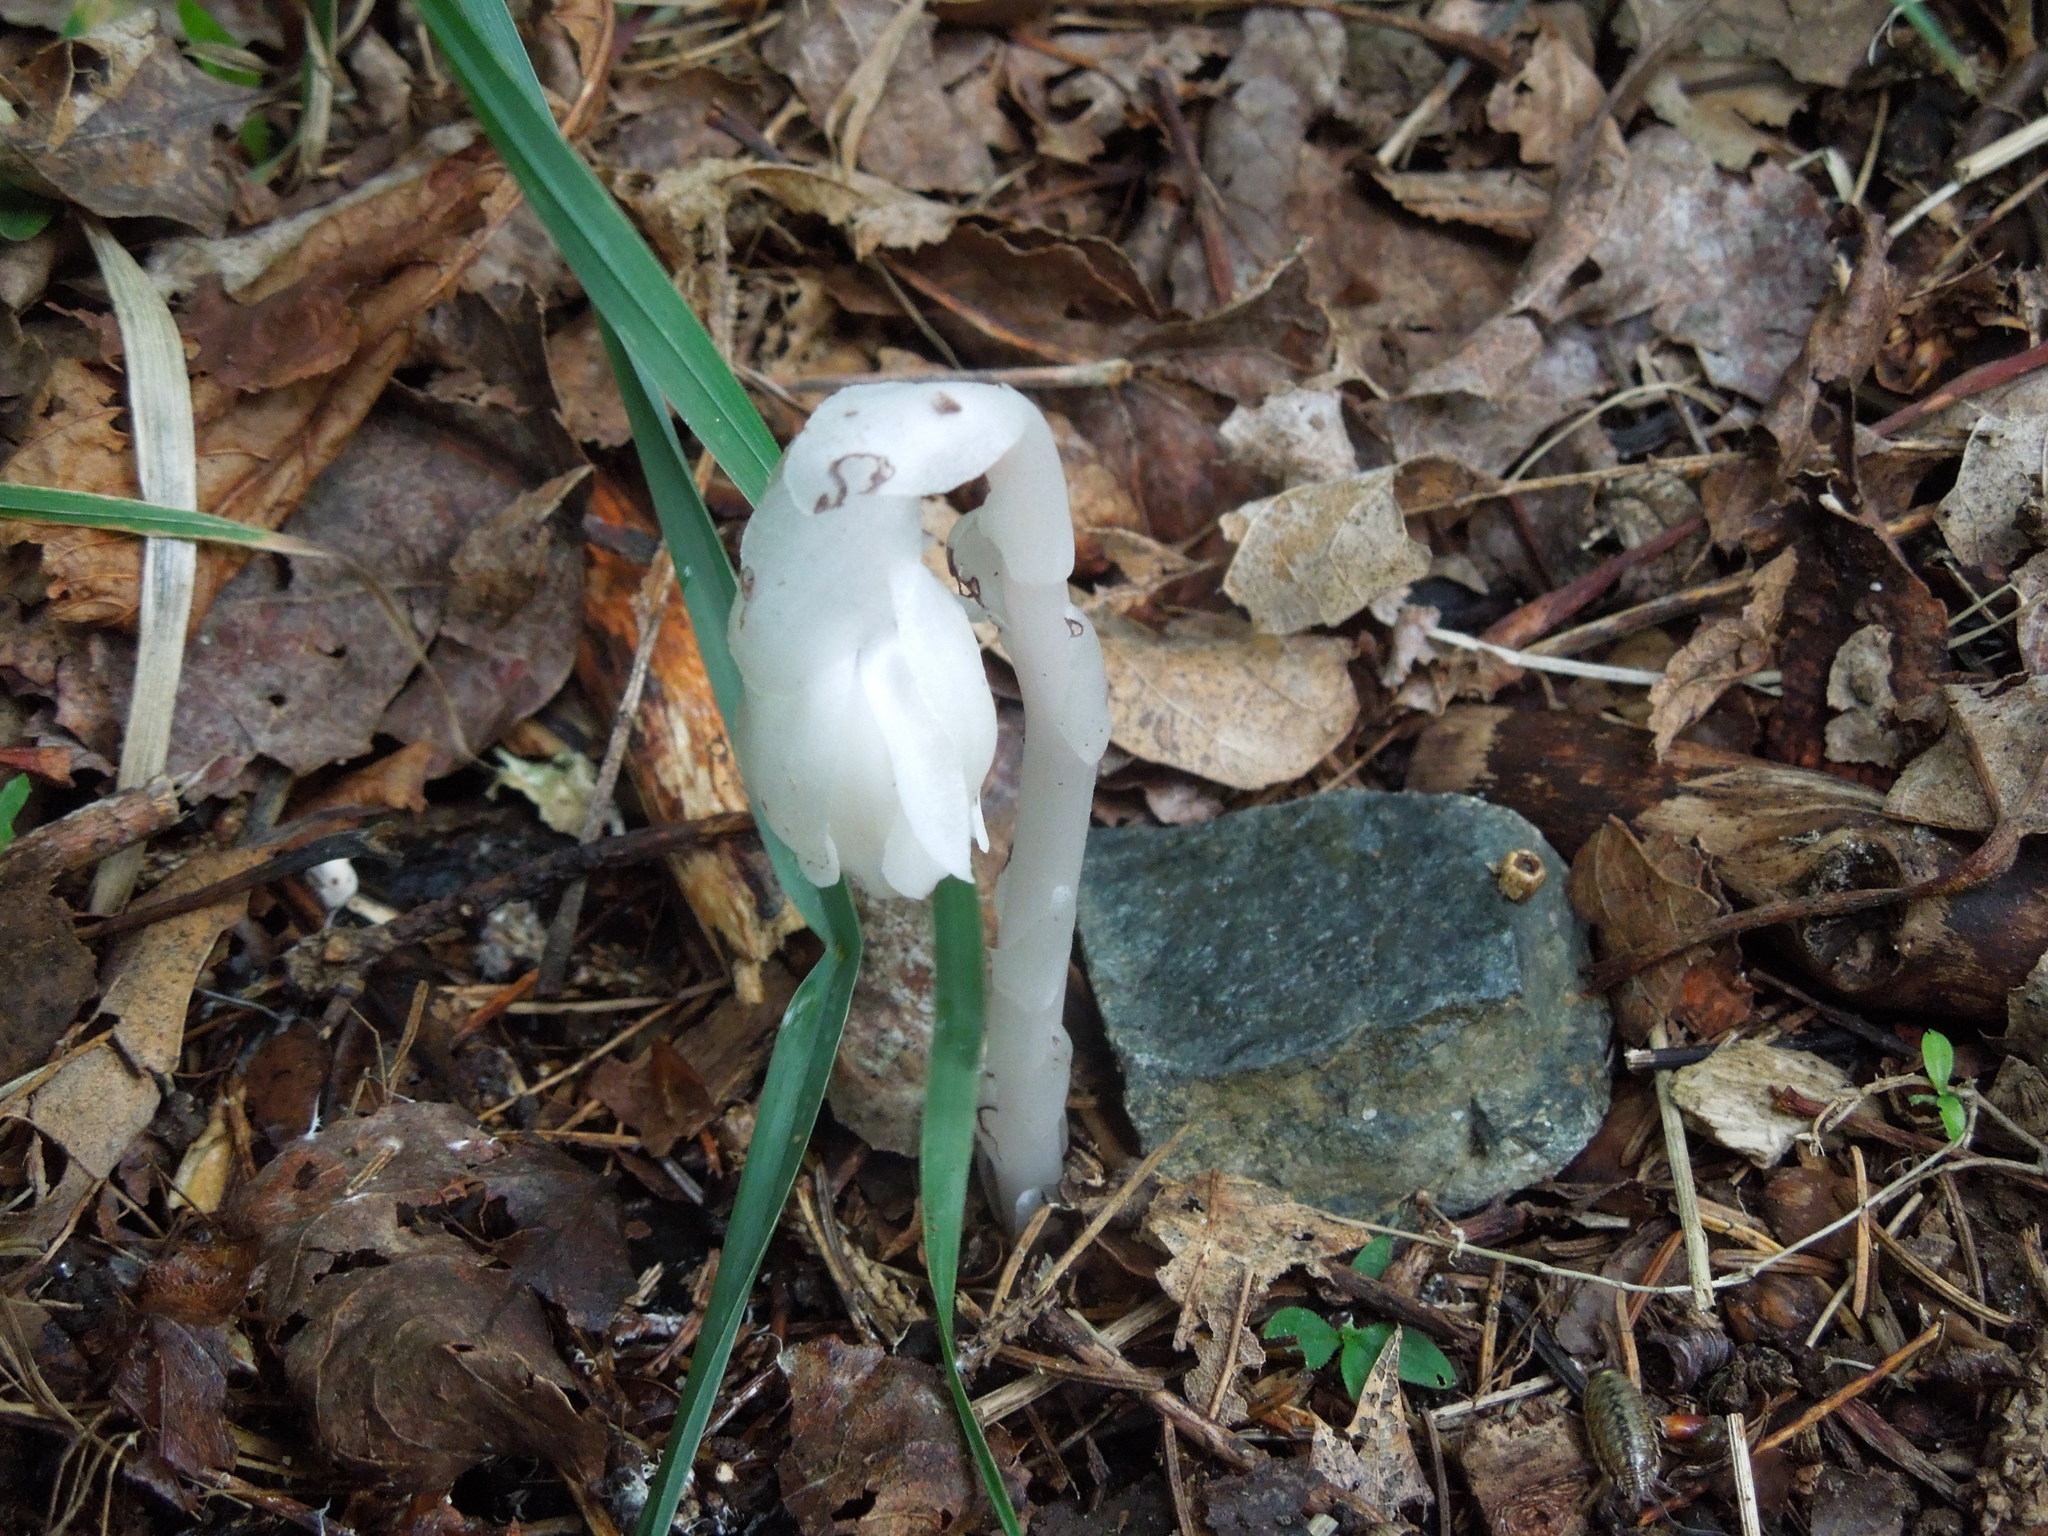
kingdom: Plantae
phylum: Tracheophyta
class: Magnoliopsida
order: Ericales
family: Ericaceae
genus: Monotropa
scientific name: Monotropa uniflora
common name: Convulsion root
